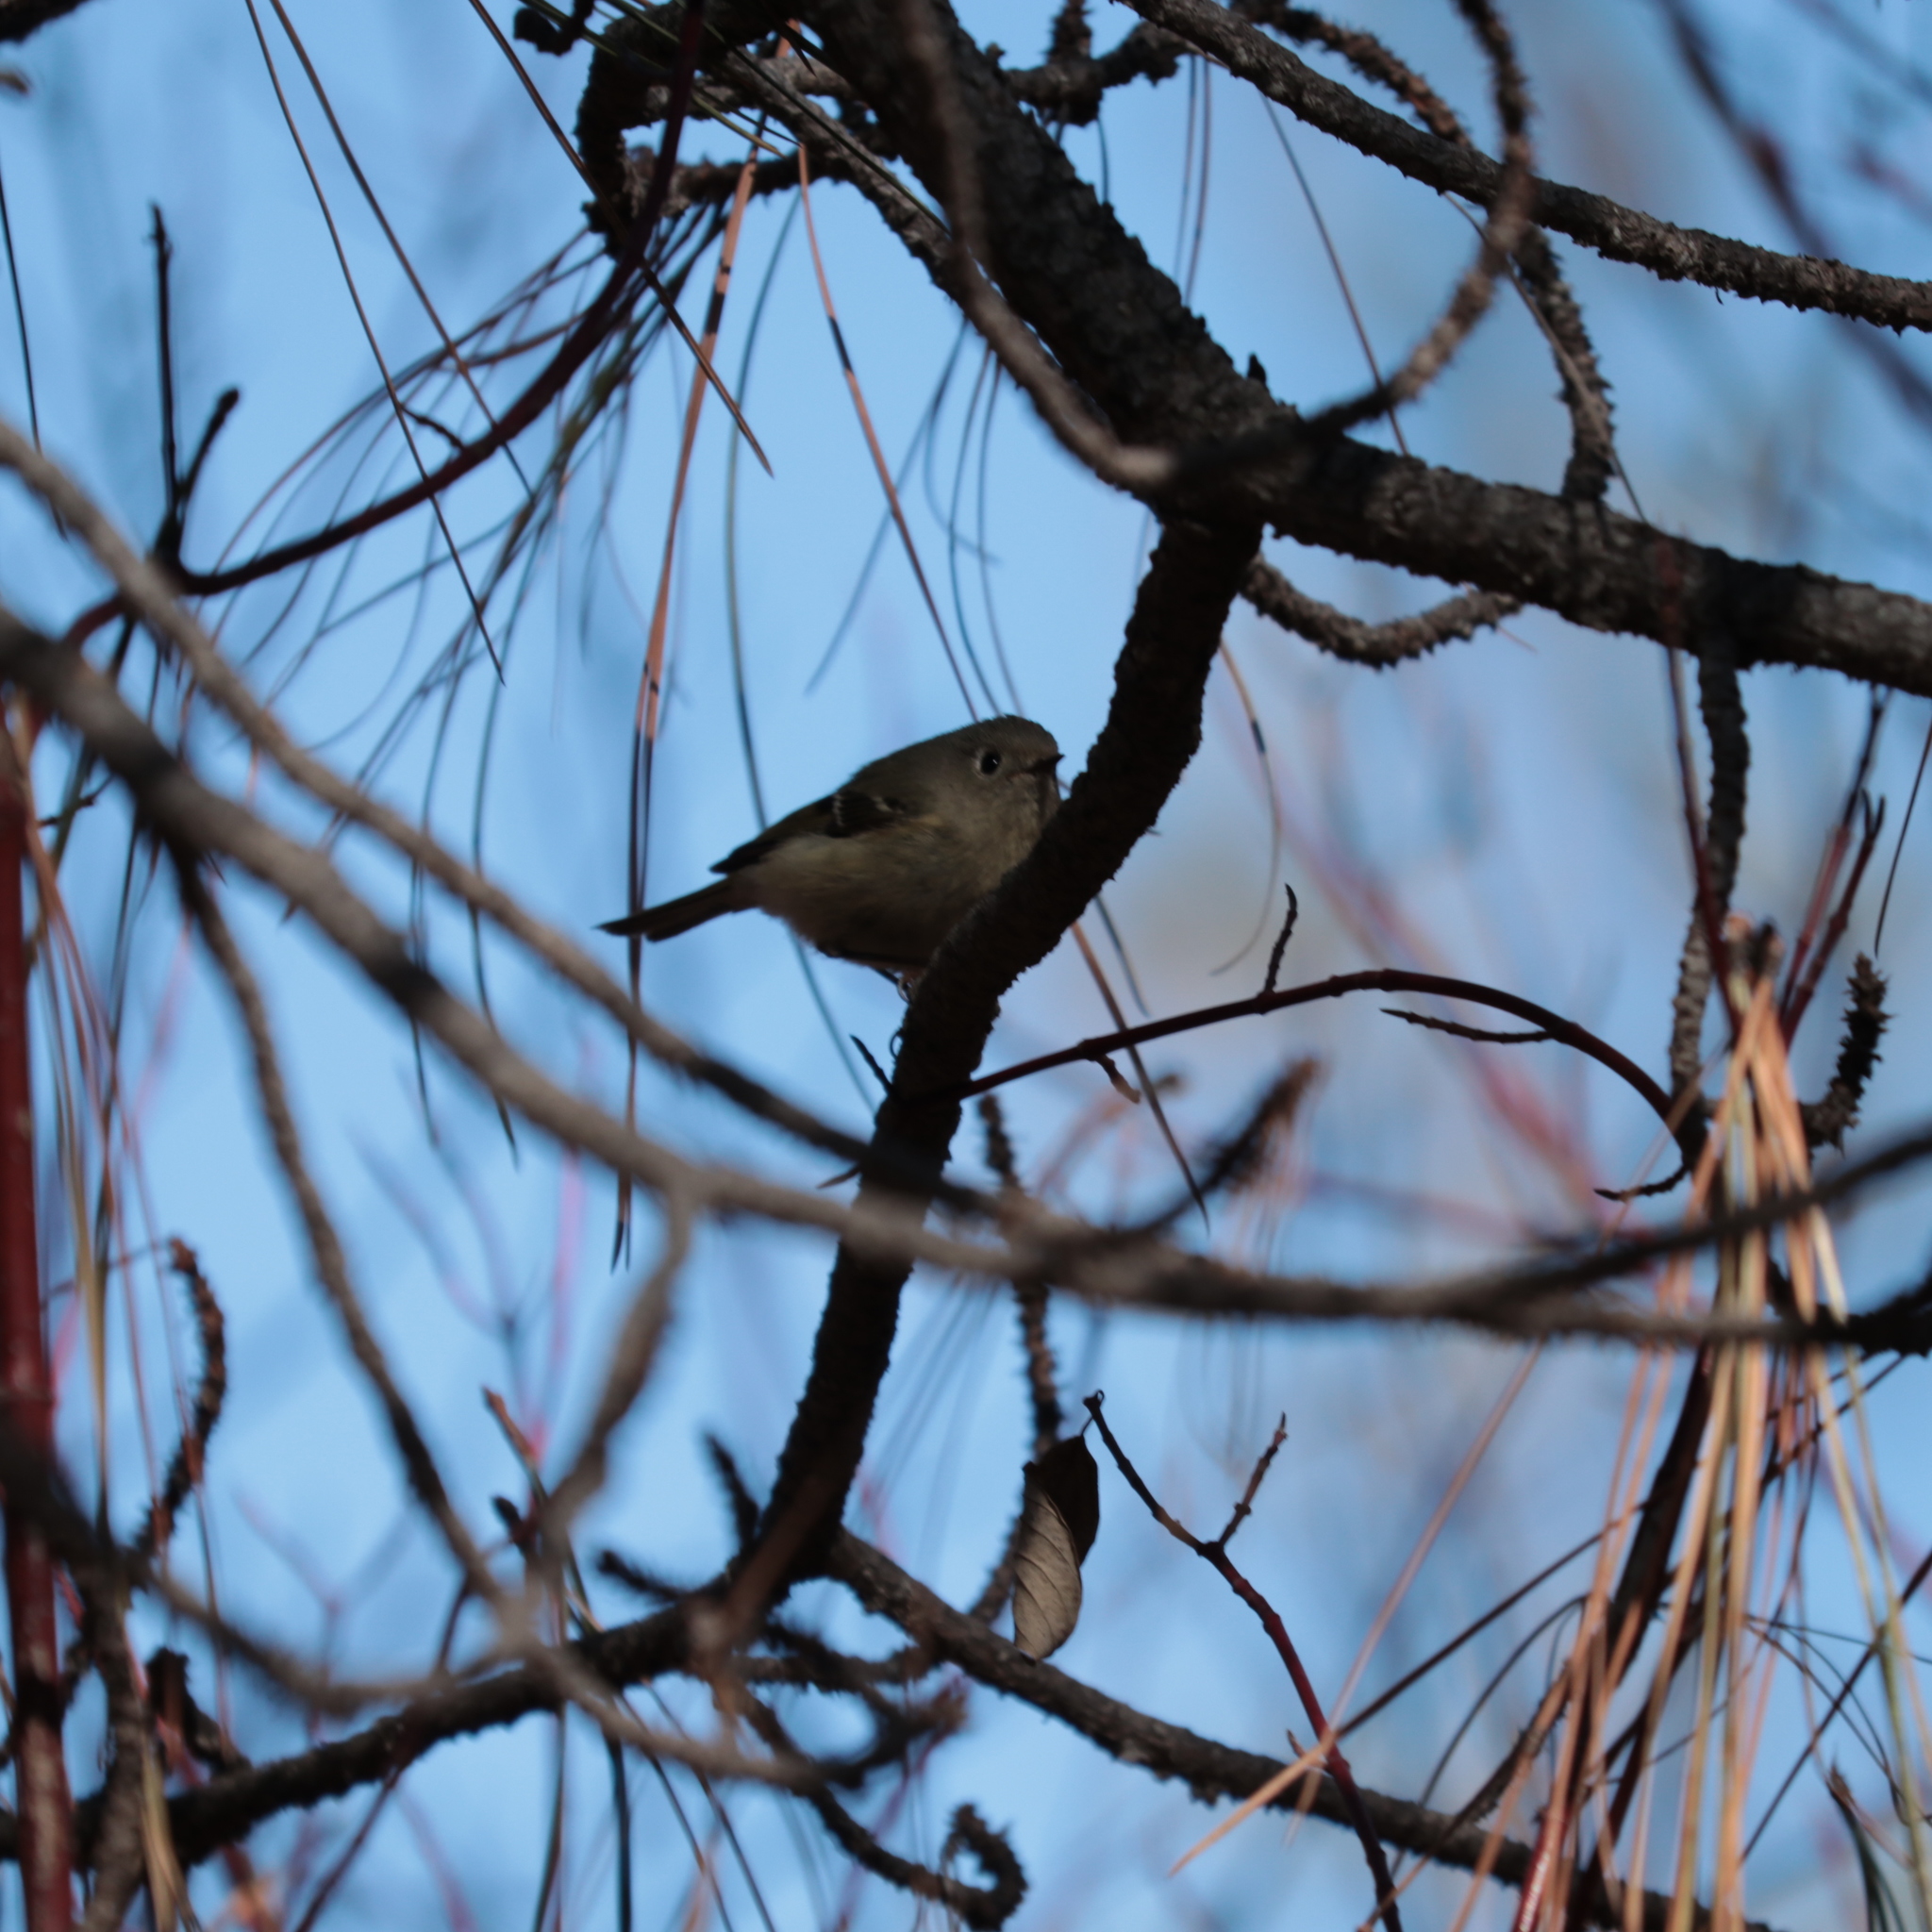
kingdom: Animalia
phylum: Chordata
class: Aves
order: Passeriformes
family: Regulidae
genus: Regulus
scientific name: Regulus calendula
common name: Ruby-crowned kinglet
